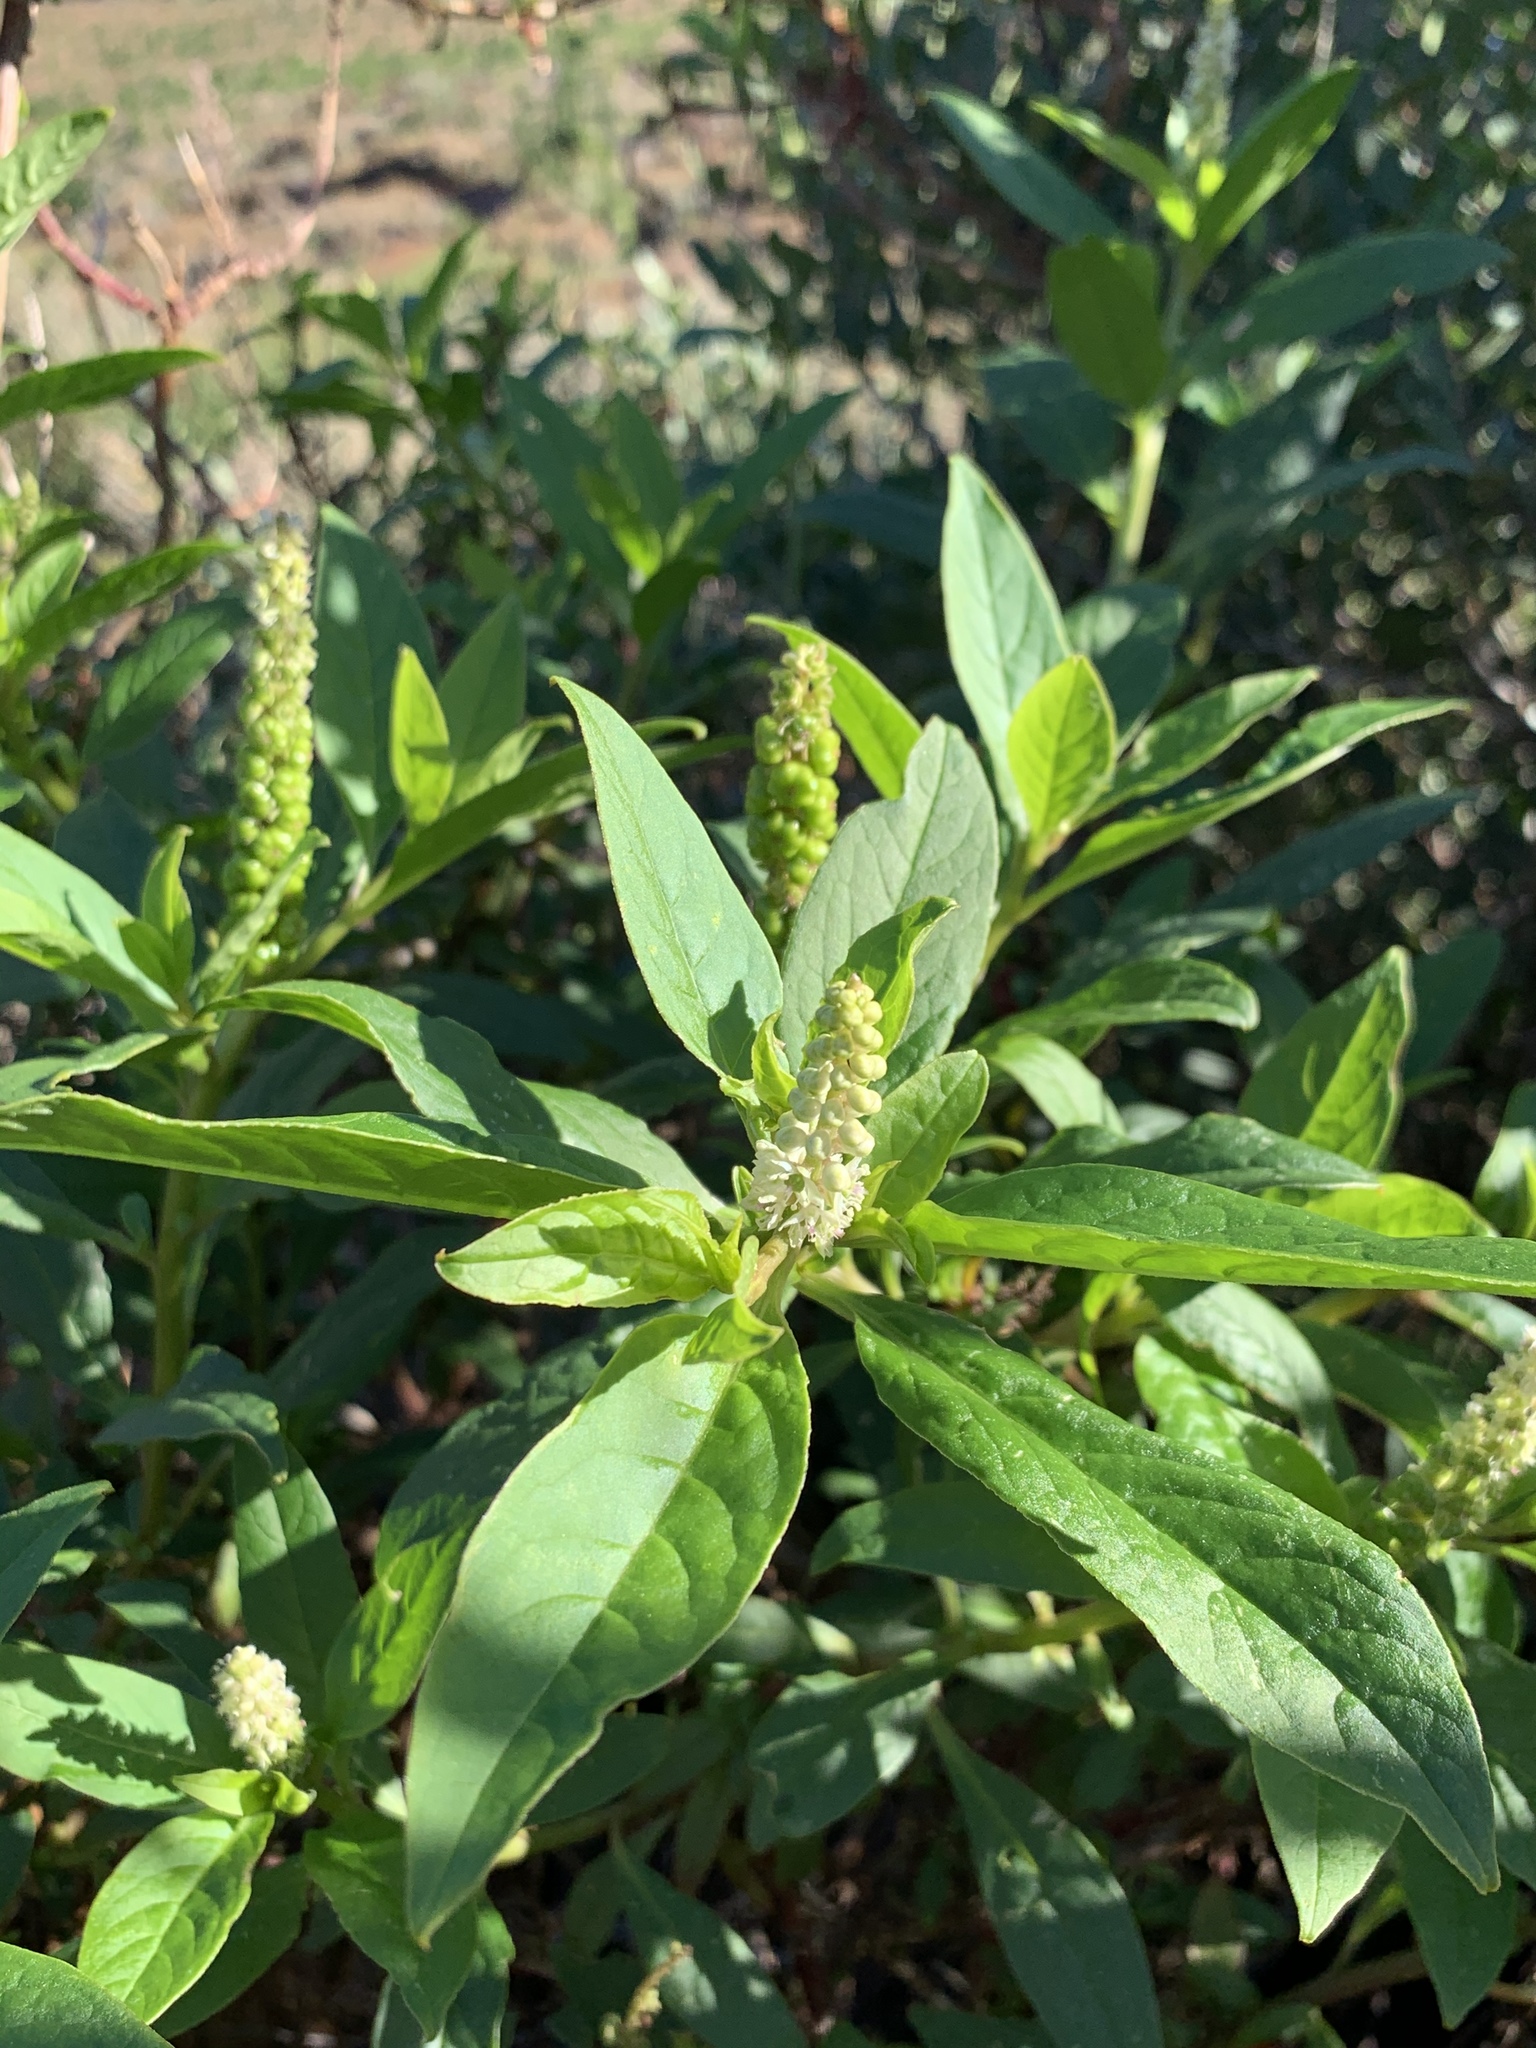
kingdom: Plantae
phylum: Tracheophyta
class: Magnoliopsida
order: Caryophyllales
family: Phytolaccaceae
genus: Phytolacca
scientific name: Phytolacca icosandra
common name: Button pokeweed
